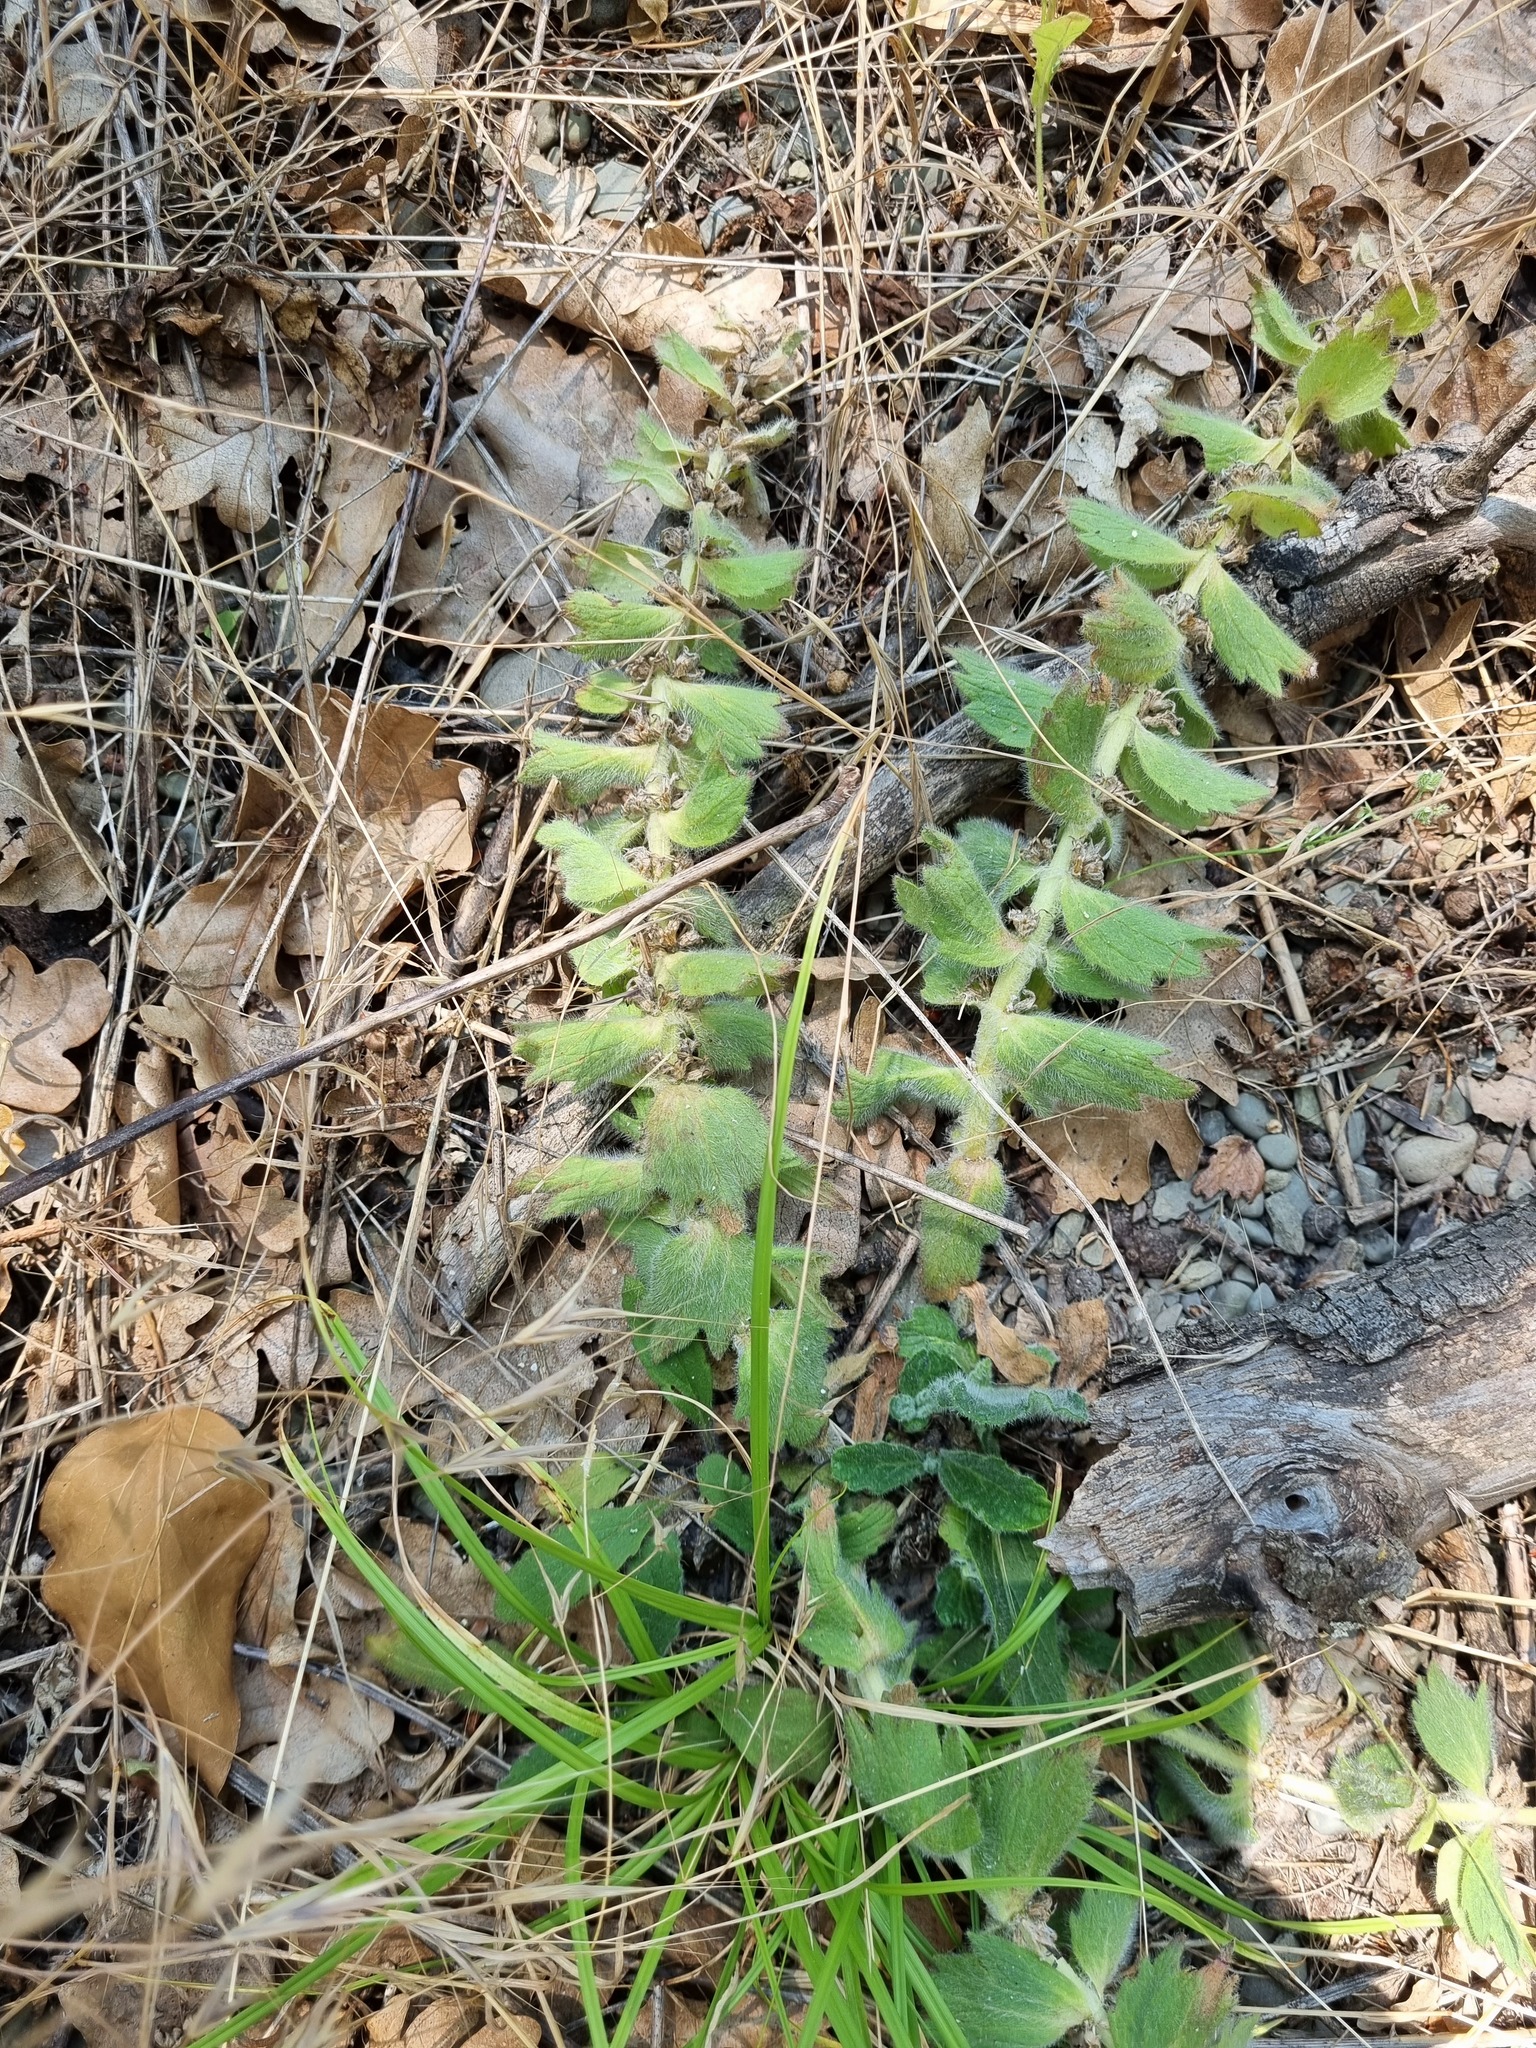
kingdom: Plantae
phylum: Tracheophyta
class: Magnoliopsida
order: Lamiales
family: Lamiaceae
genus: Ajuga
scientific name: Ajuga orientalis
